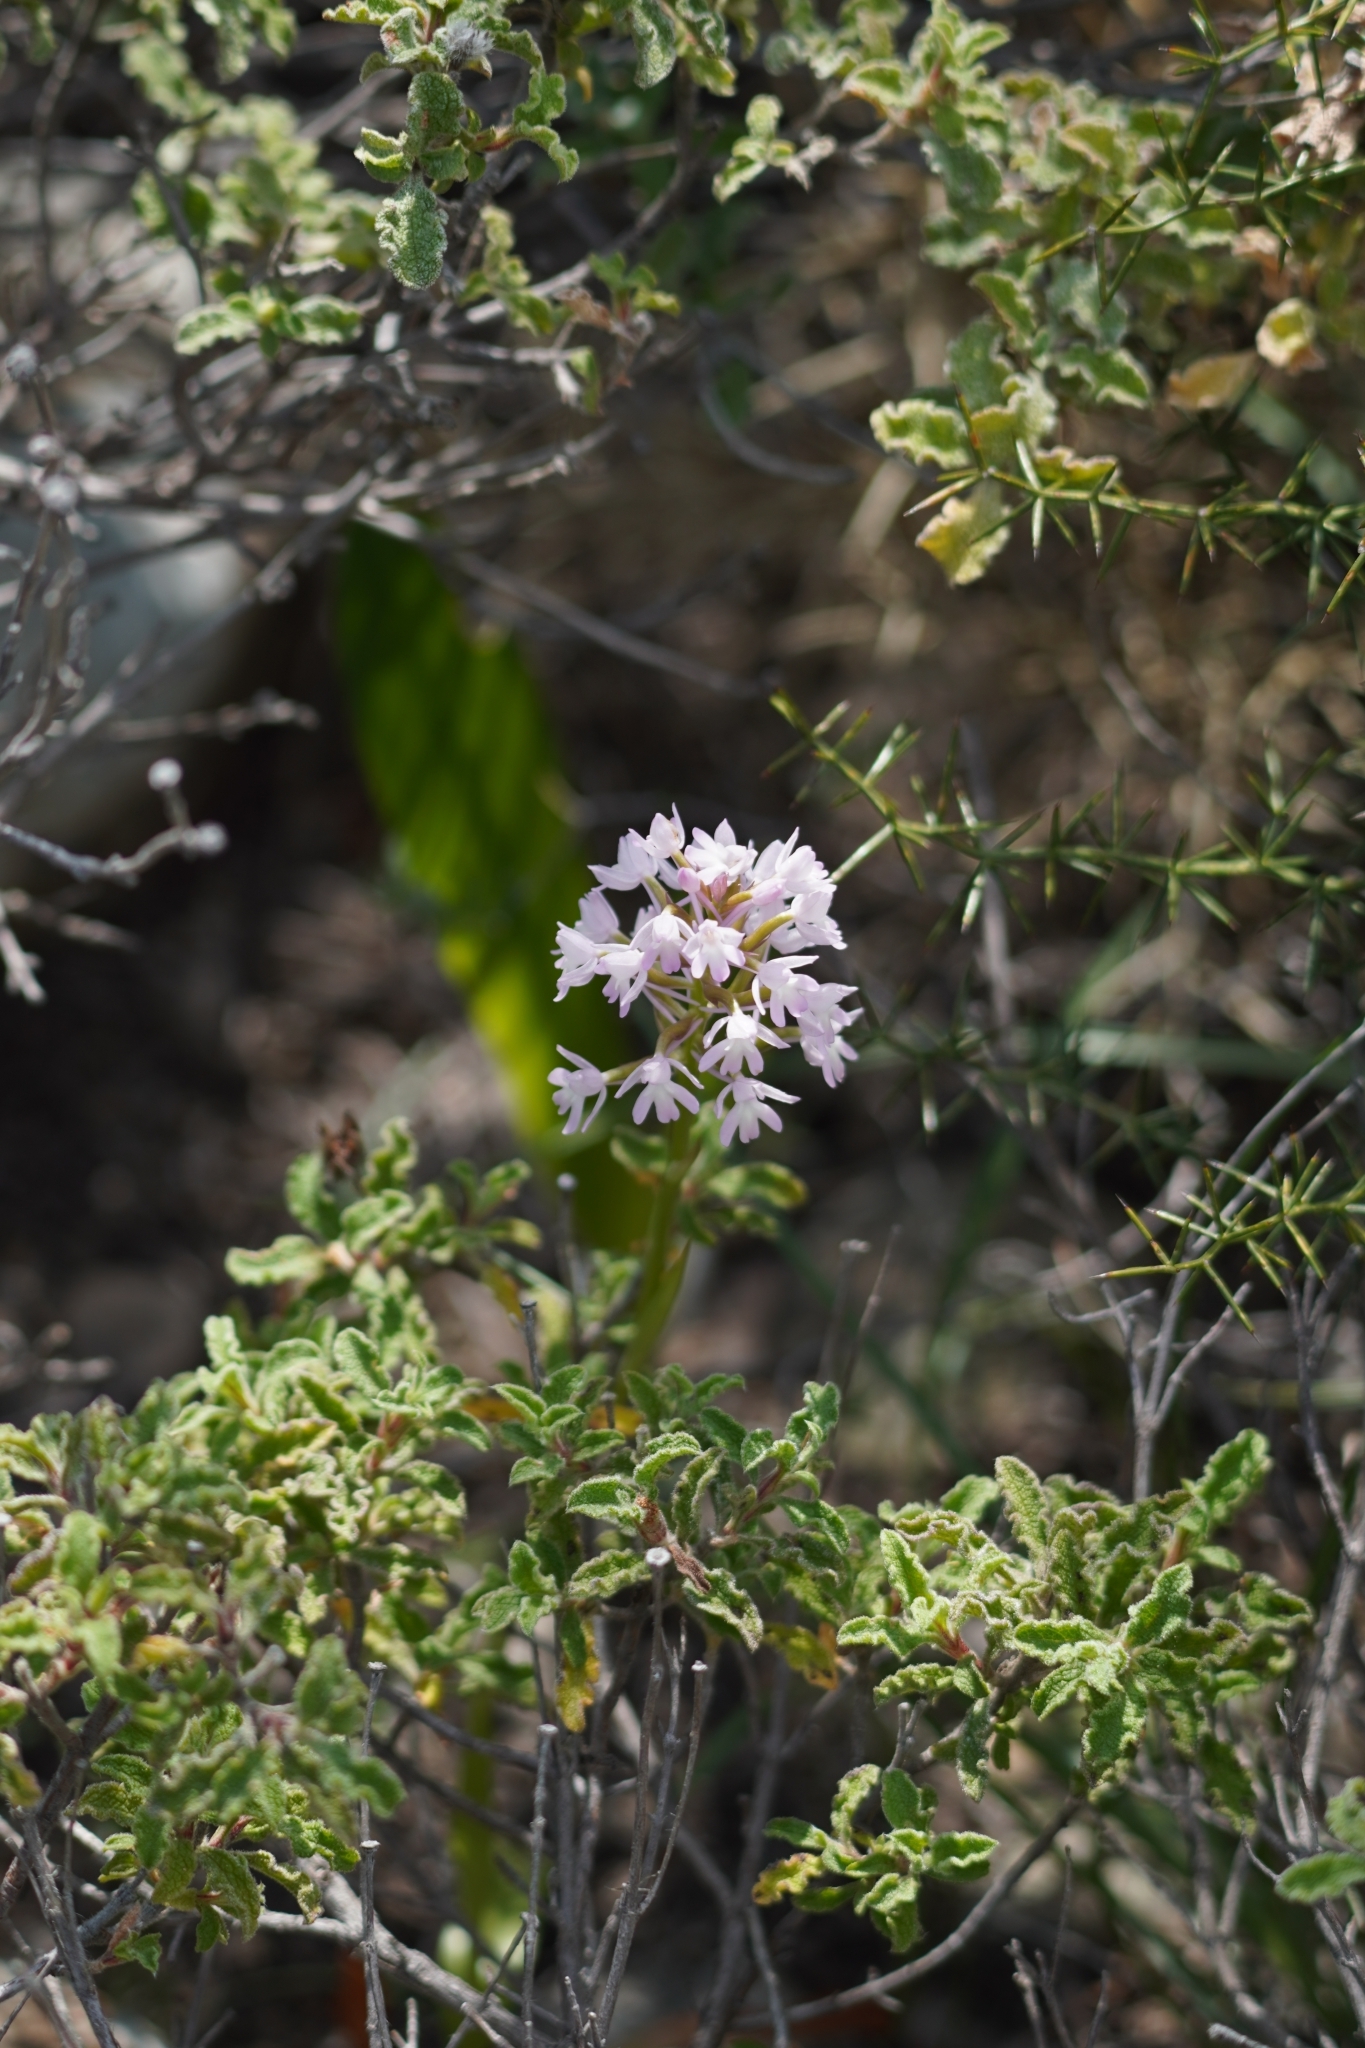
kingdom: Plantae
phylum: Tracheophyta
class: Liliopsida
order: Asparagales
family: Orchidaceae
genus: Anacamptis
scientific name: Anacamptis pyramidalis
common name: Pyramidal orchid
